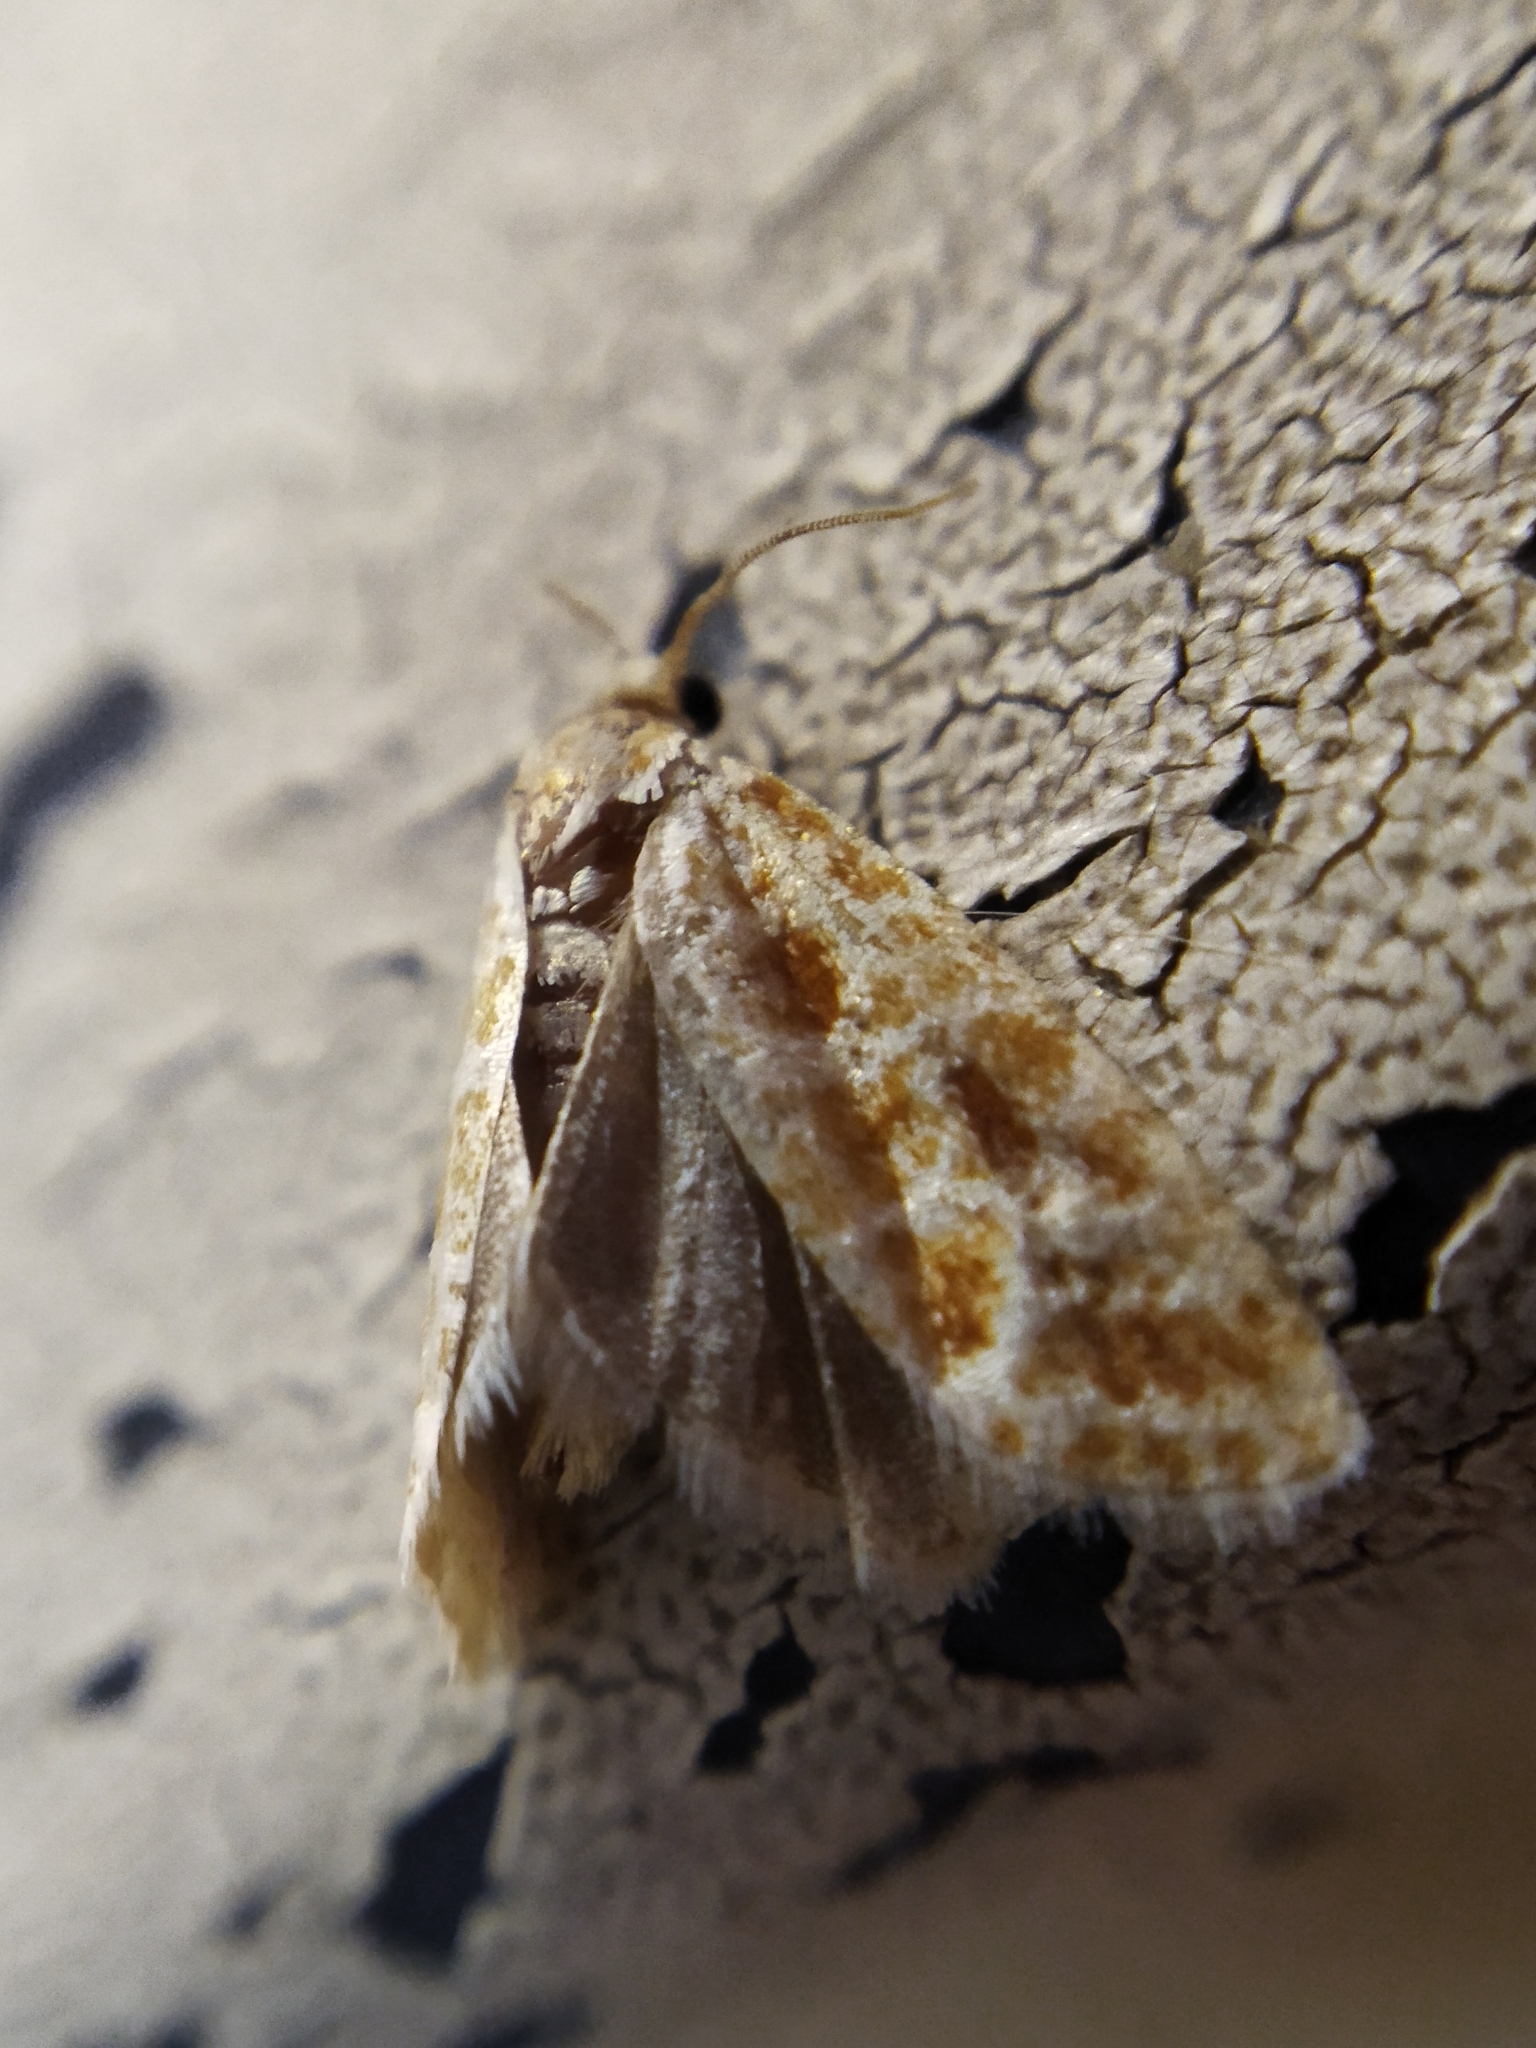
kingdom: Animalia
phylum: Arthropoda
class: Insecta
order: Lepidoptera
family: Tortricidae
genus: Rhyacionia
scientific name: Rhyacionia pinicolana
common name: Orange-spotted shoot
